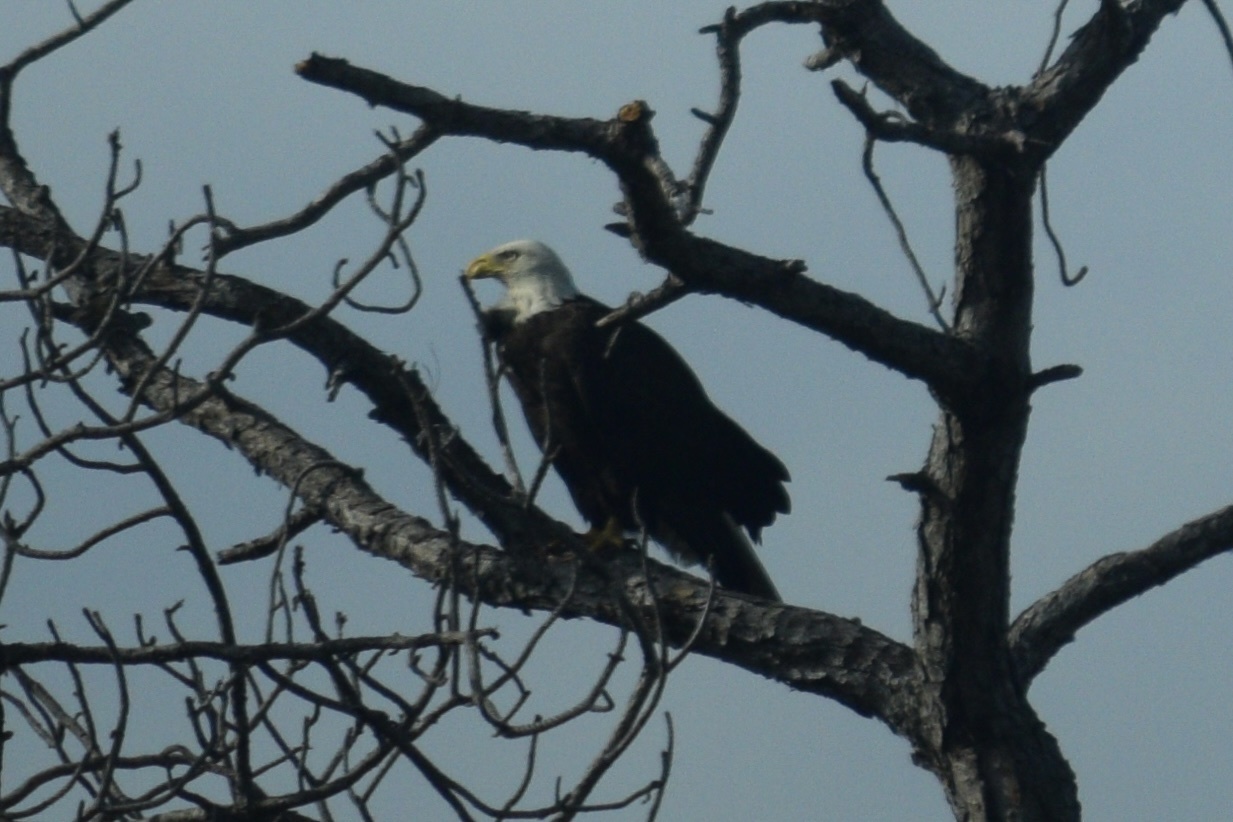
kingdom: Animalia
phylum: Chordata
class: Aves
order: Accipitriformes
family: Accipitridae
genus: Haliaeetus
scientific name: Haliaeetus leucocephalus
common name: Bald eagle
